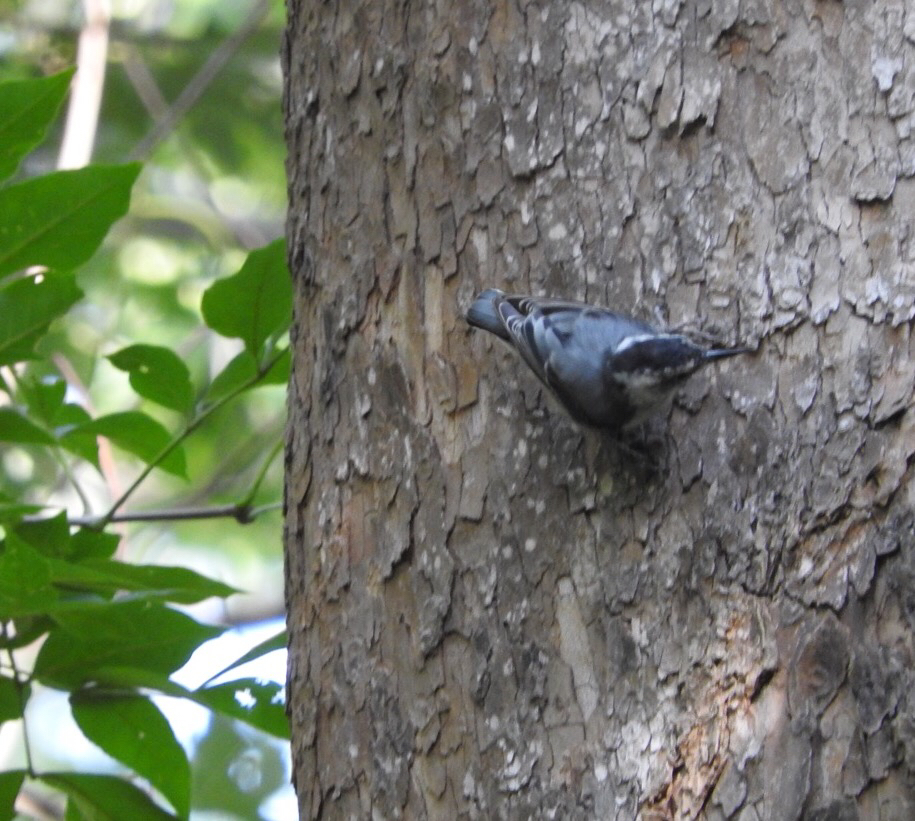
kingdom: Animalia
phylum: Chordata
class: Aves
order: Passeriformes
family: Sittidae
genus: Sitta
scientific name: Sitta carolinensis
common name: White-breasted nuthatch
